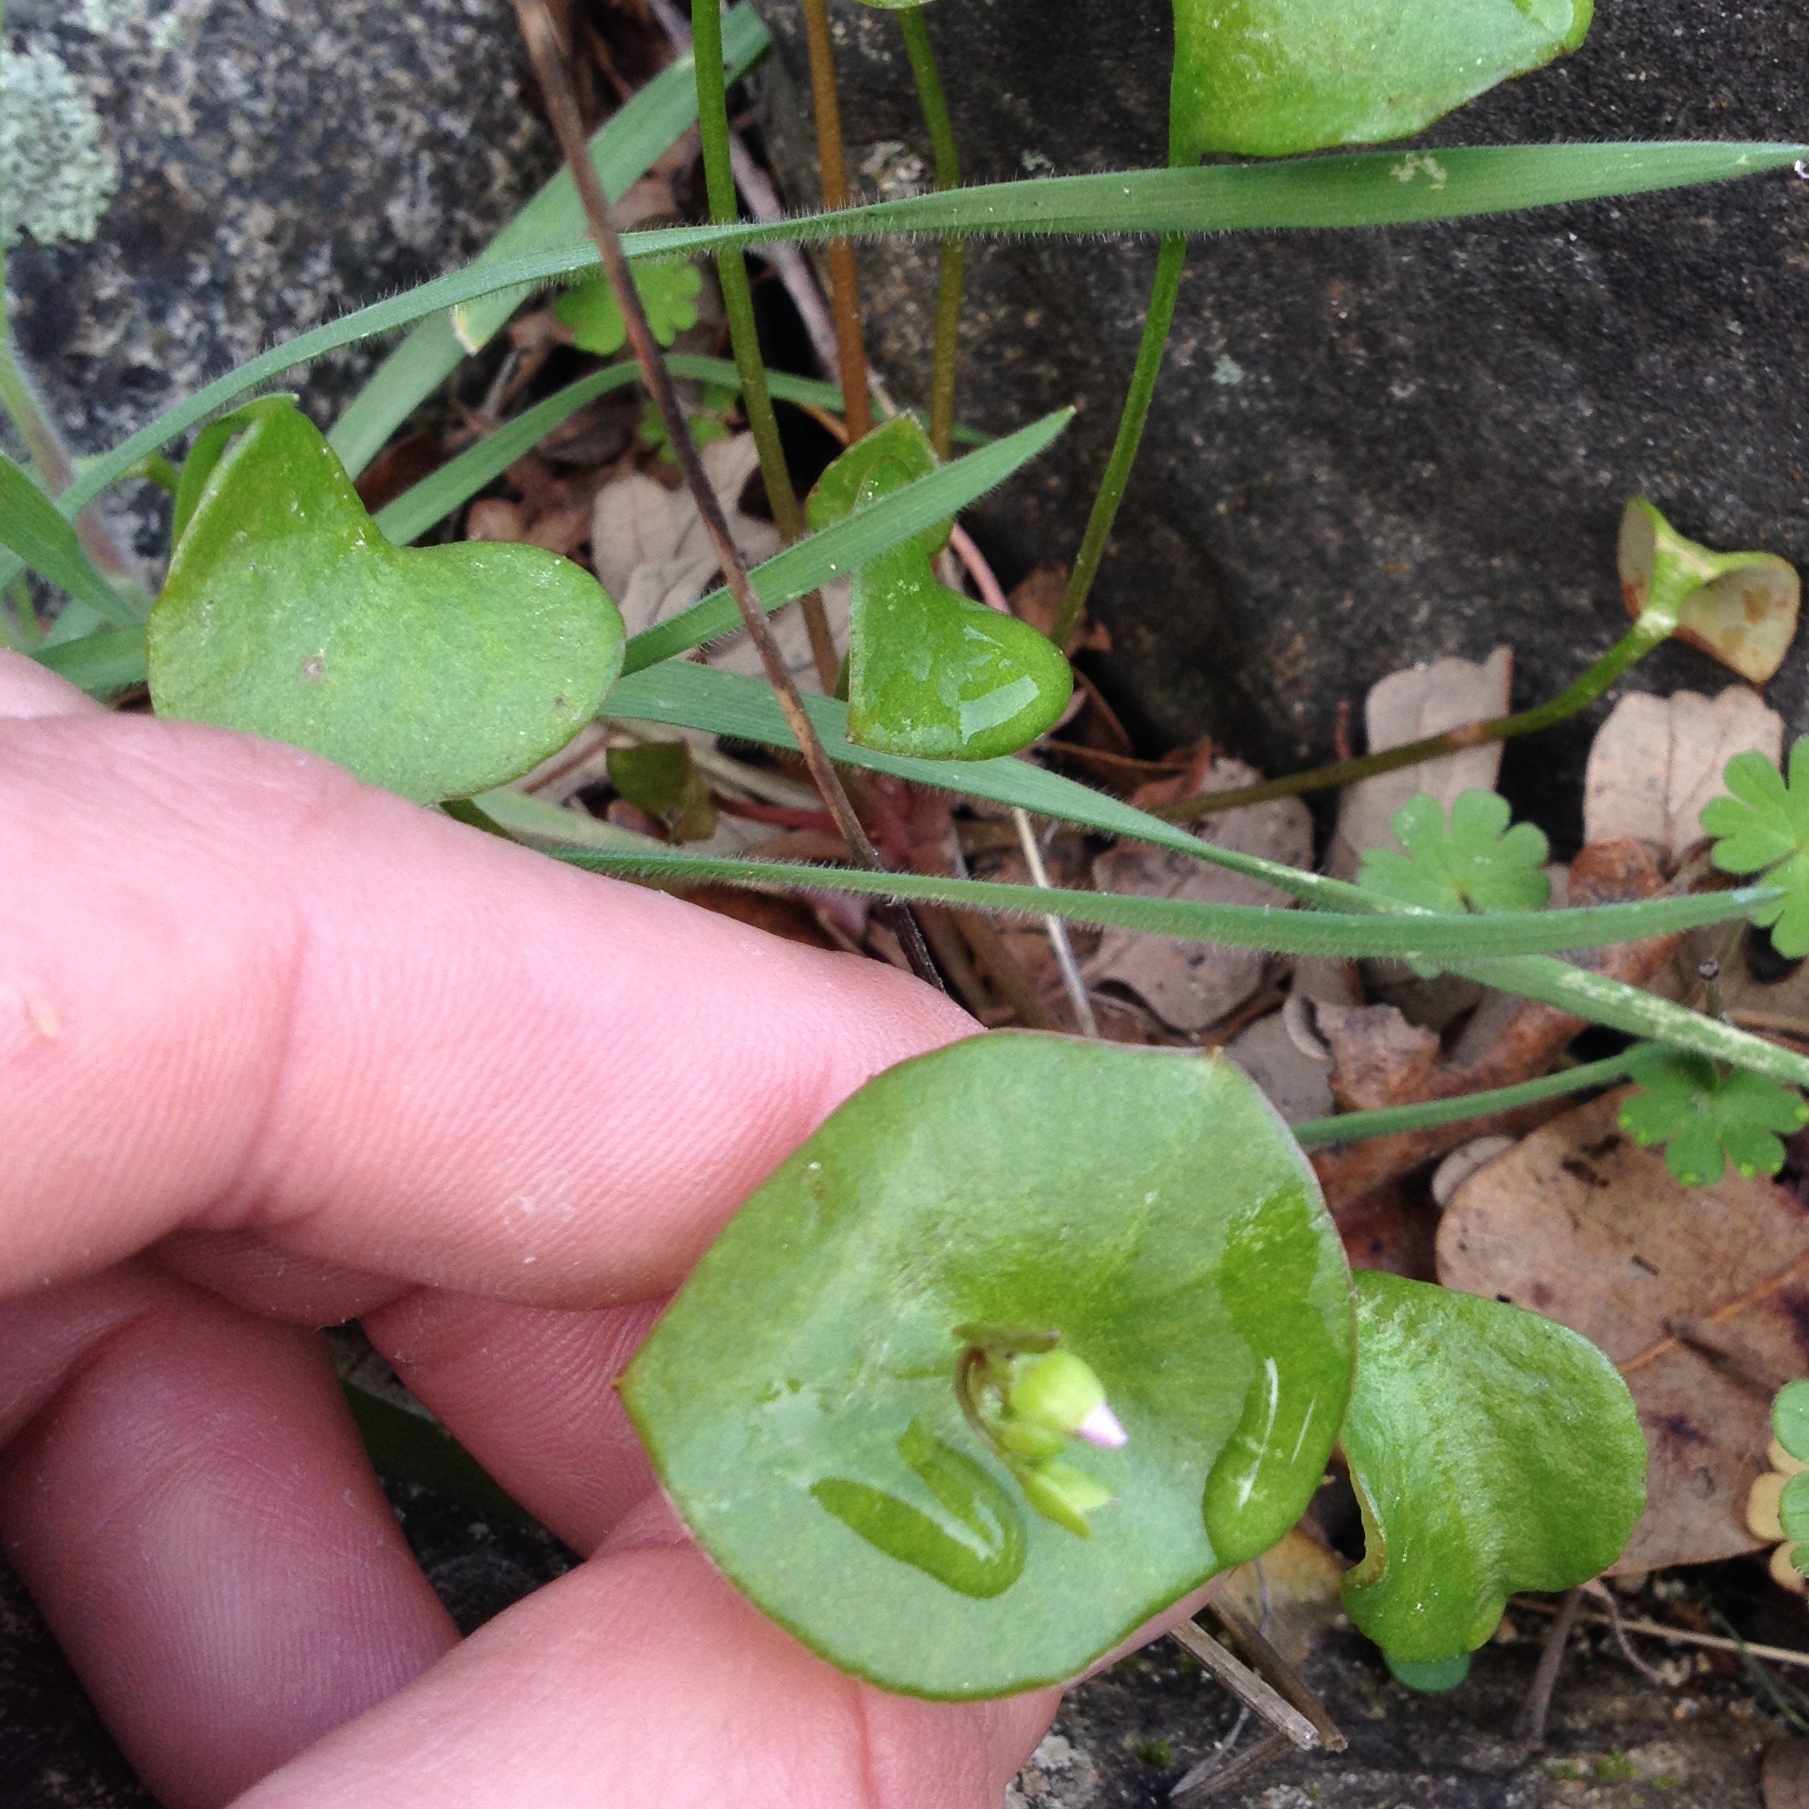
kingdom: Plantae
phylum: Tracheophyta
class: Magnoliopsida
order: Caryophyllales
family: Montiaceae
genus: Claytonia
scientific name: Claytonia perfoliata
